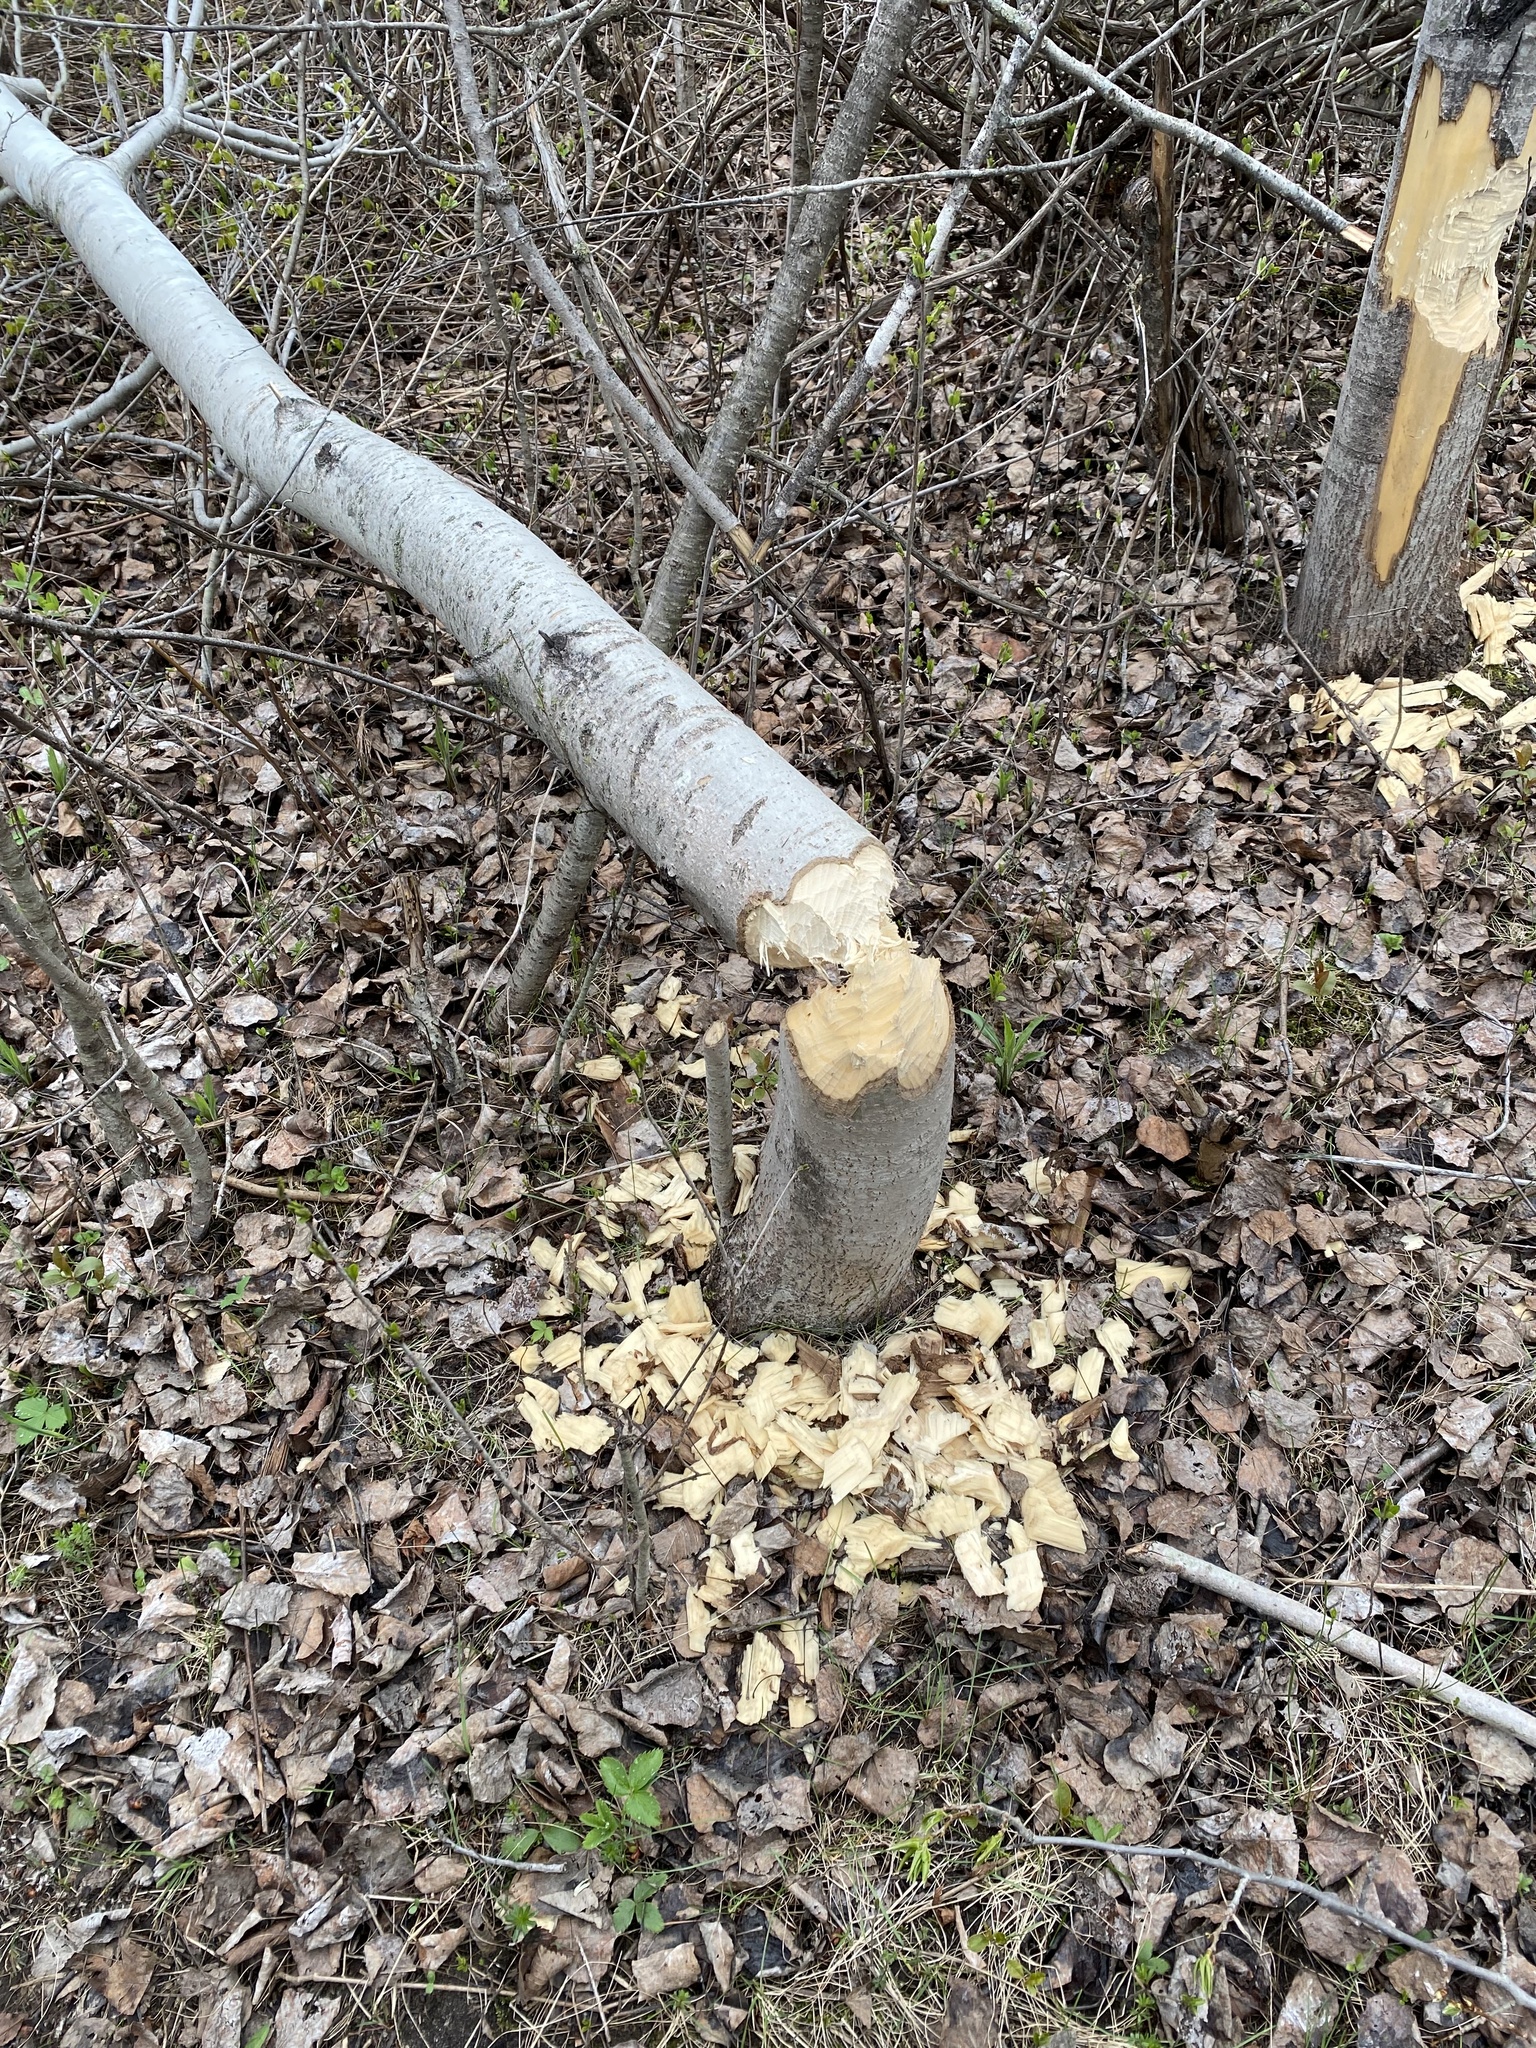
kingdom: Animalia
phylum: Chordata
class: Mammalia
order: Rodentia
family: Castoridae
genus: Castor
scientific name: Castor canadensis
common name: American beaver
